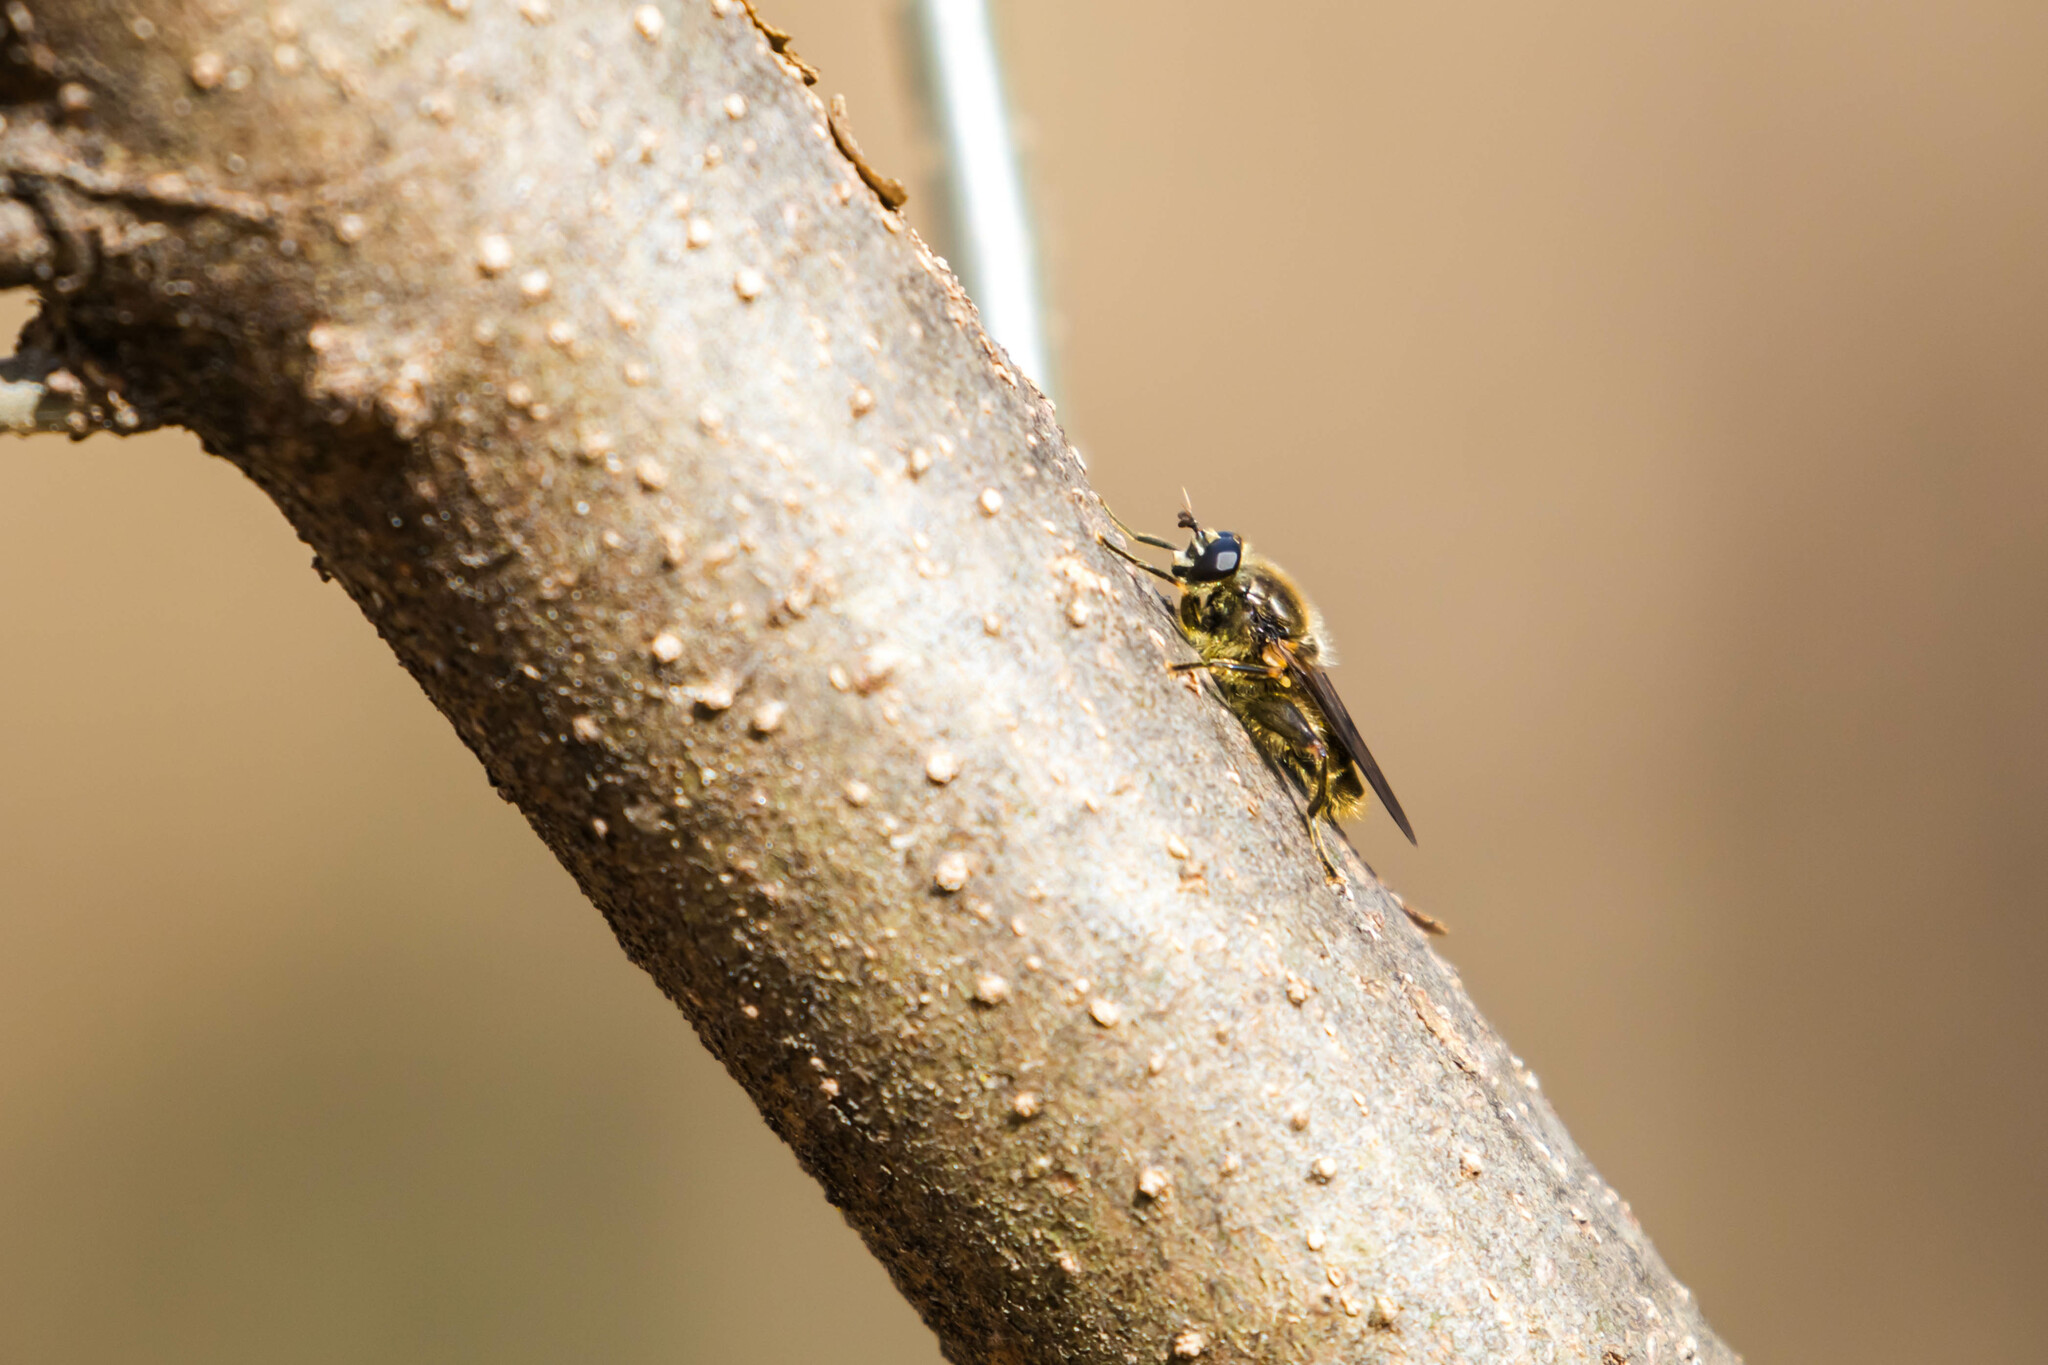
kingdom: Animalia
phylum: Arthropoda
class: Insecta
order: Diptera
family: Syrphidae
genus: Brachypalpus
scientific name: Brachypalpus oarus
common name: Eastern catkin fly
